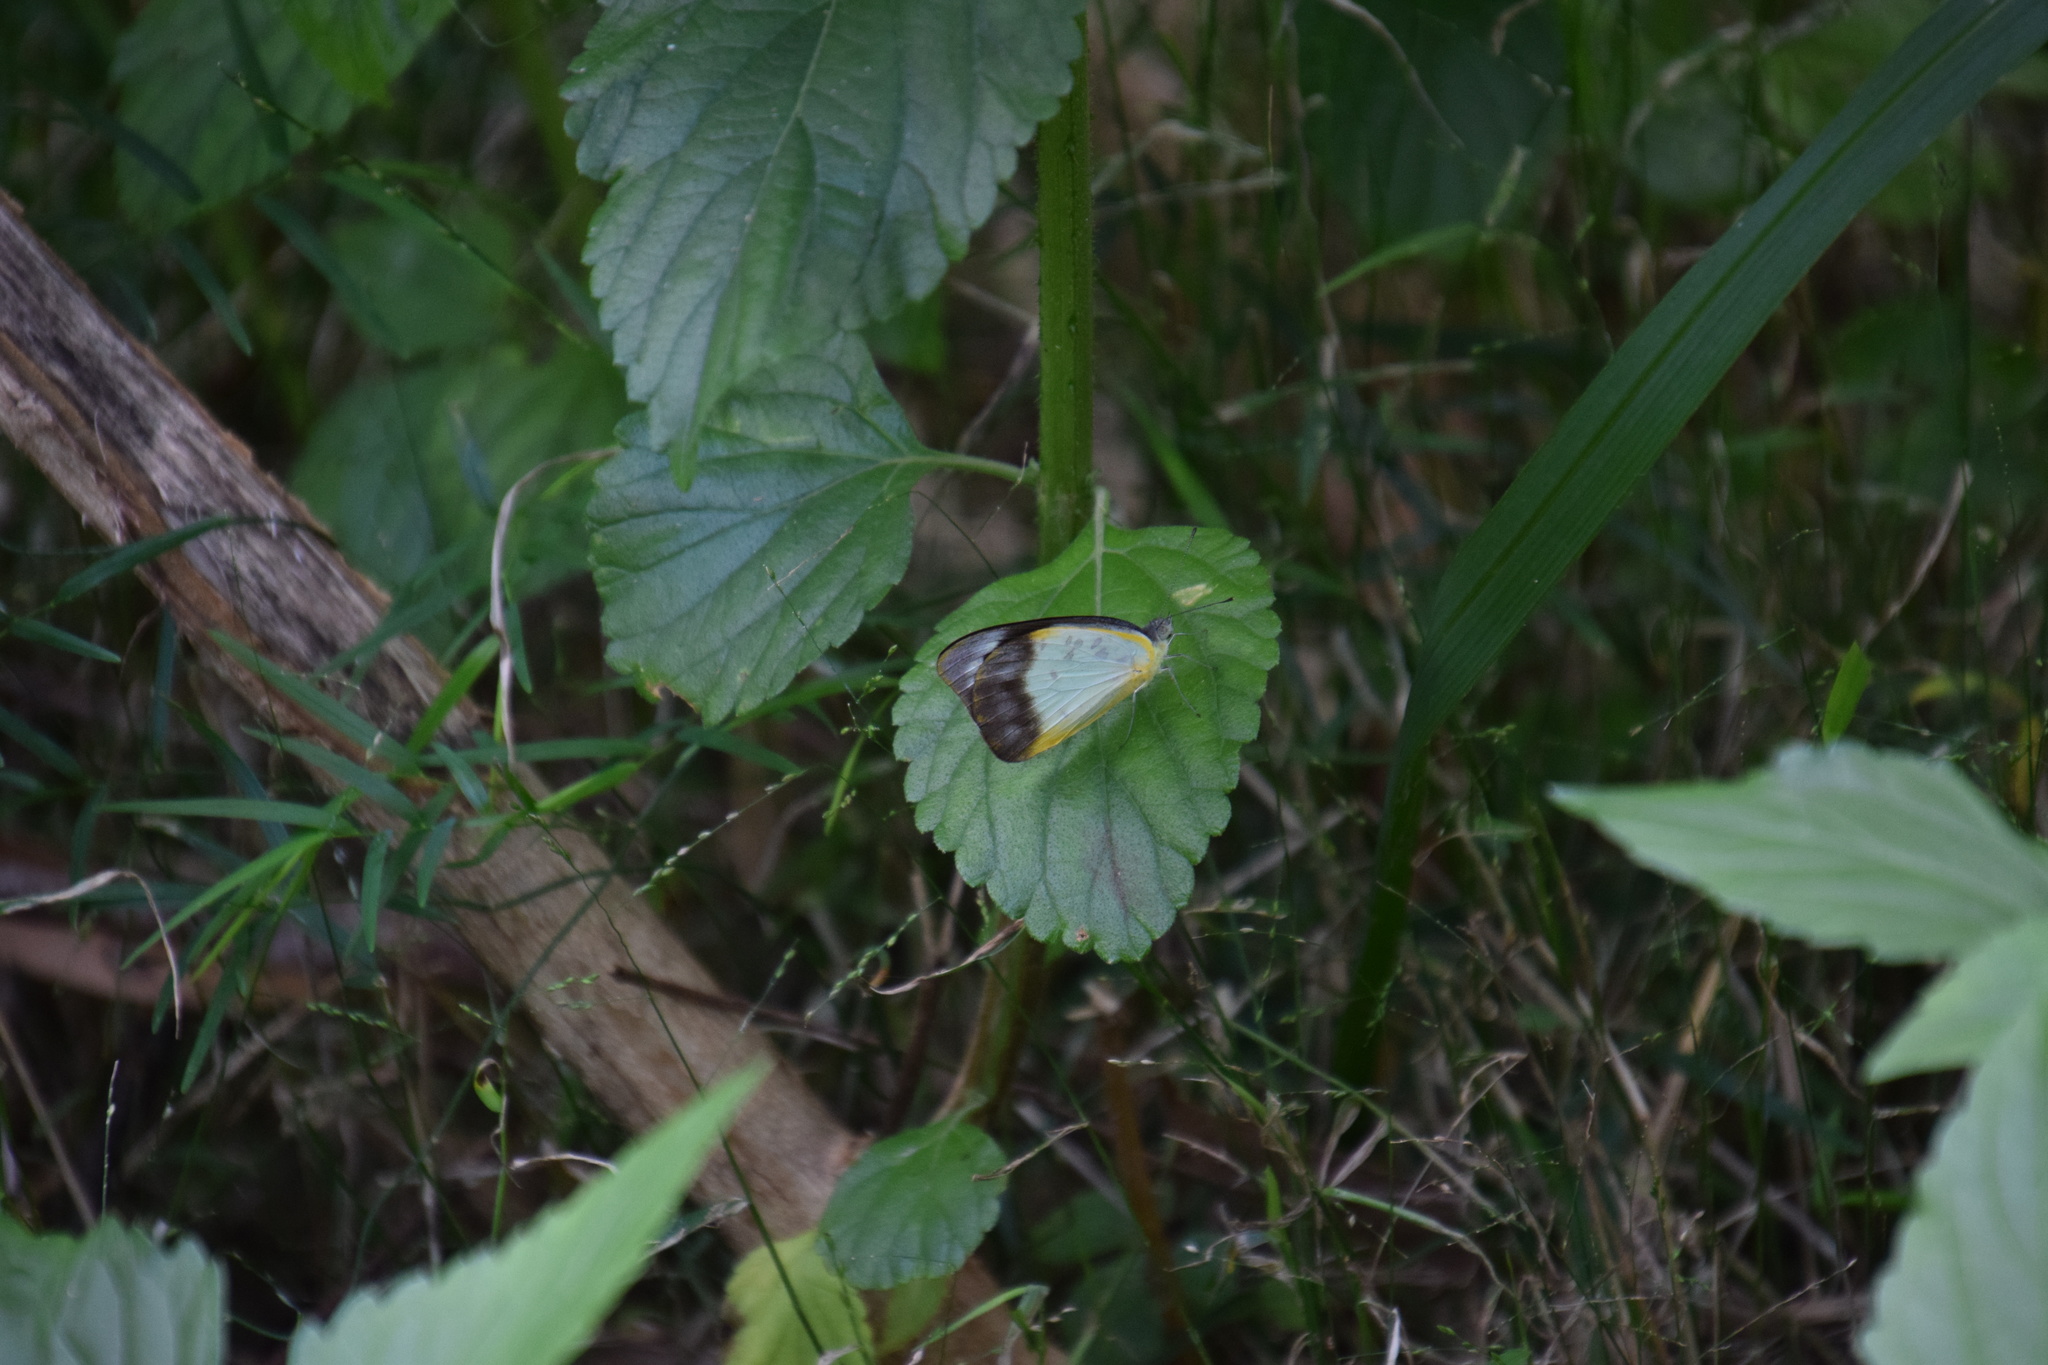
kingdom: Animalia
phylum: Arthropoda
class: Insecta
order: Lepidoptera
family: Pieridae
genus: Appias
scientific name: Appias paulina
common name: Ceylon lesser albatross
